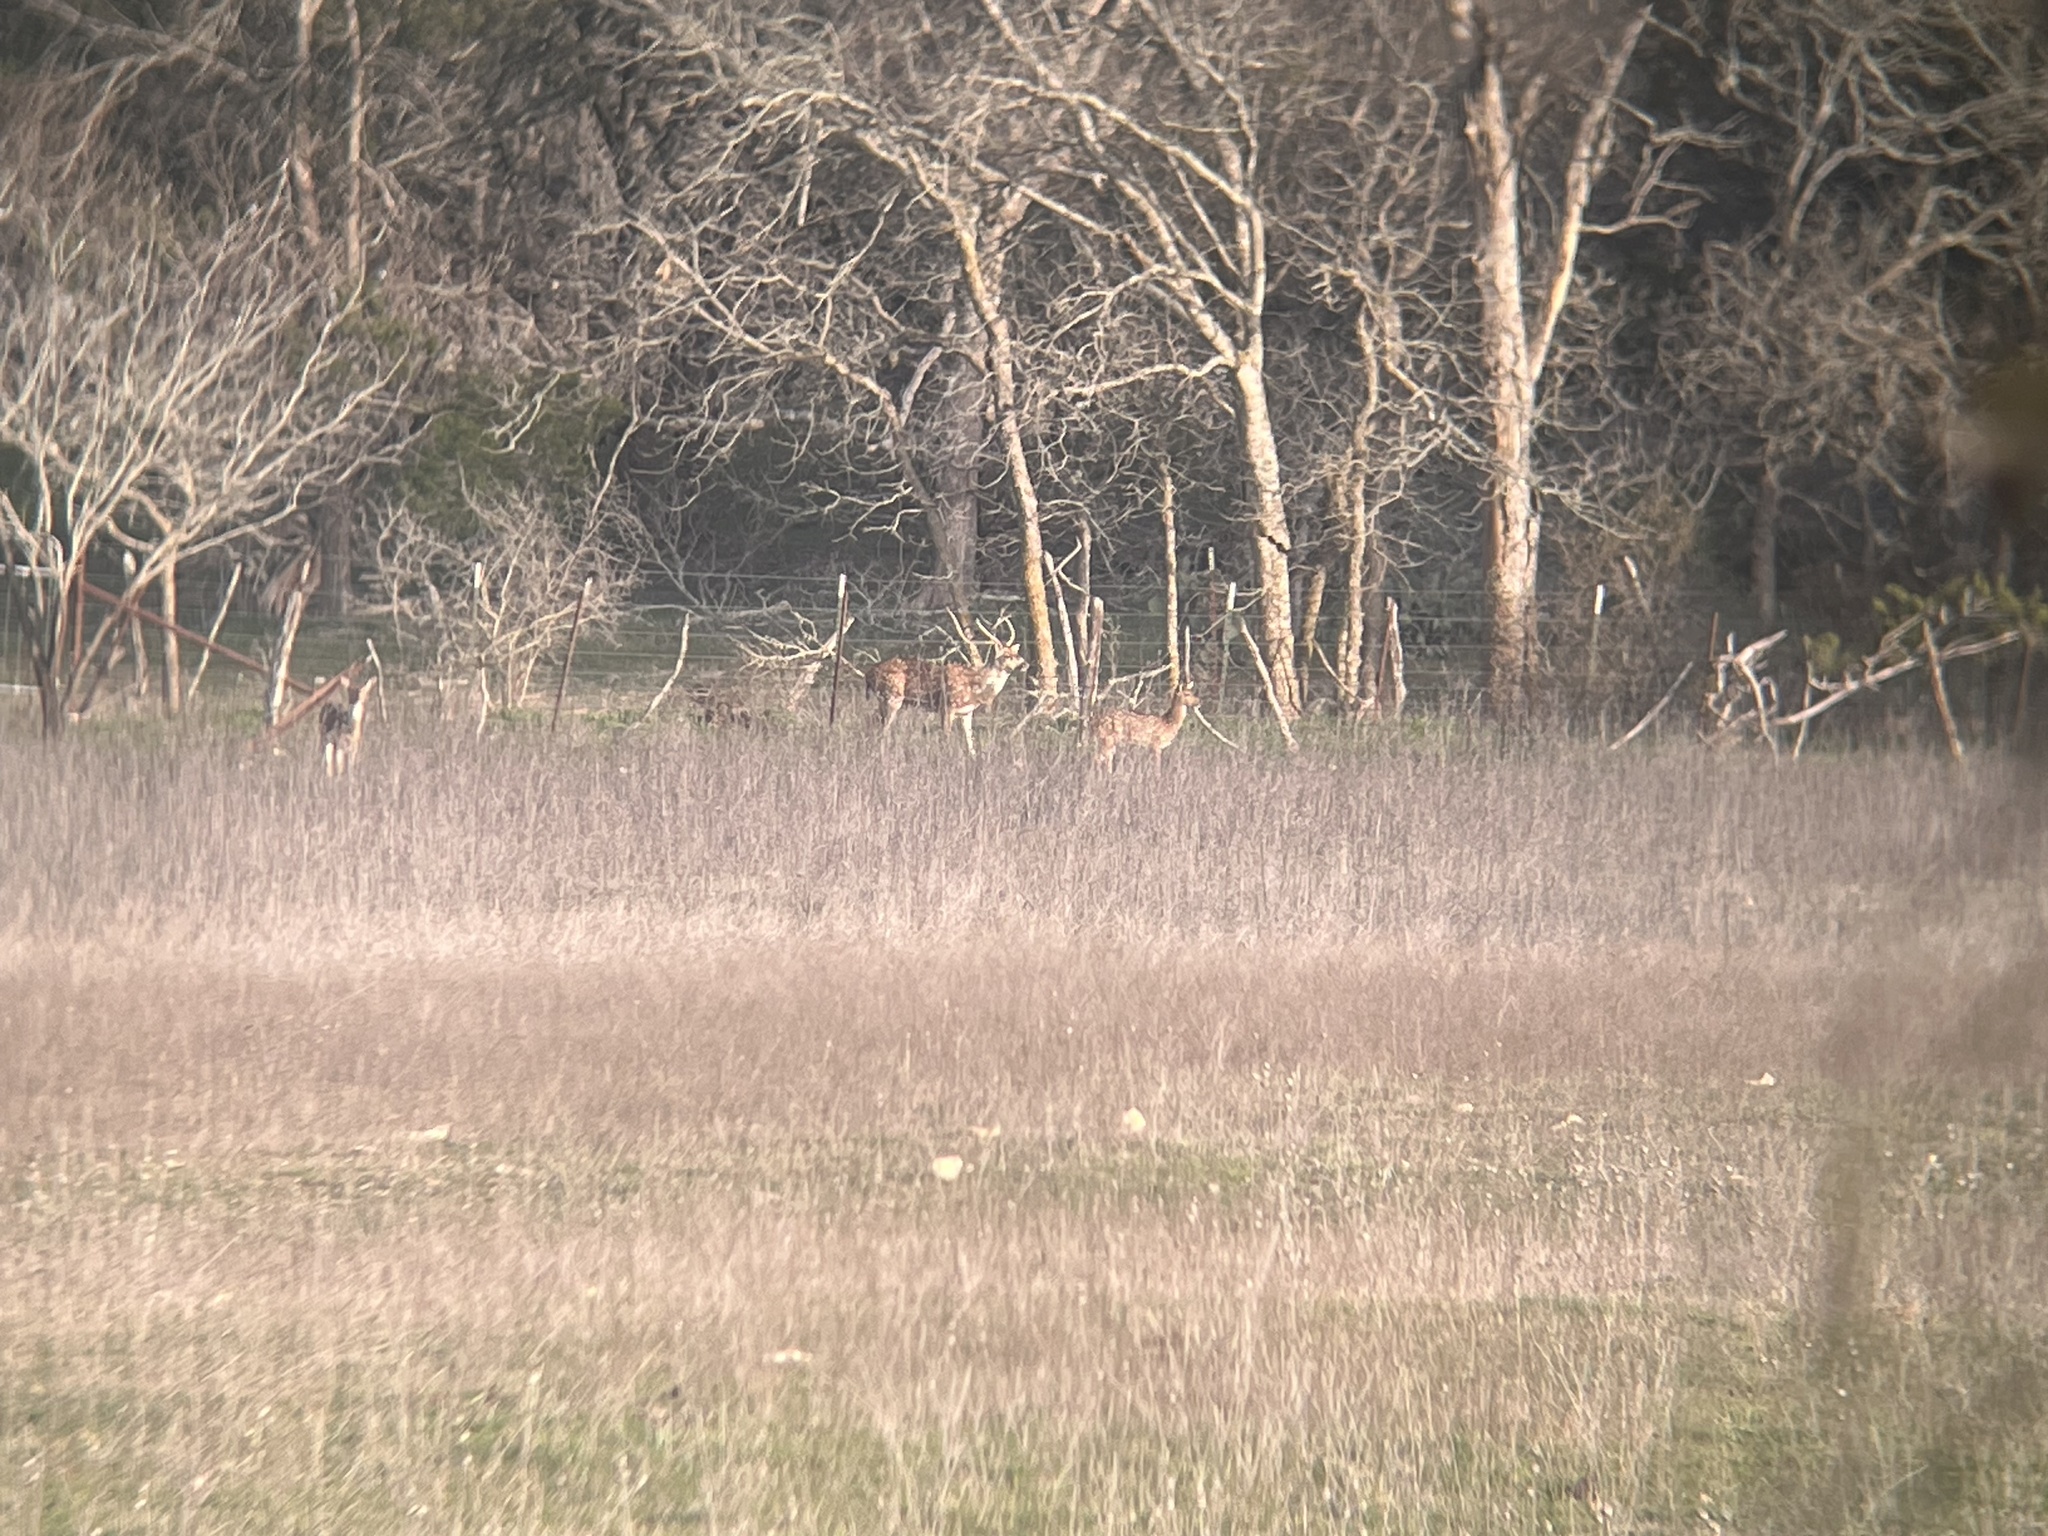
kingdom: Animalia
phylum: Chordata
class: Mammalia
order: Artiodactyla
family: Cervidae
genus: Axis
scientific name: Axis axis
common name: Chital
